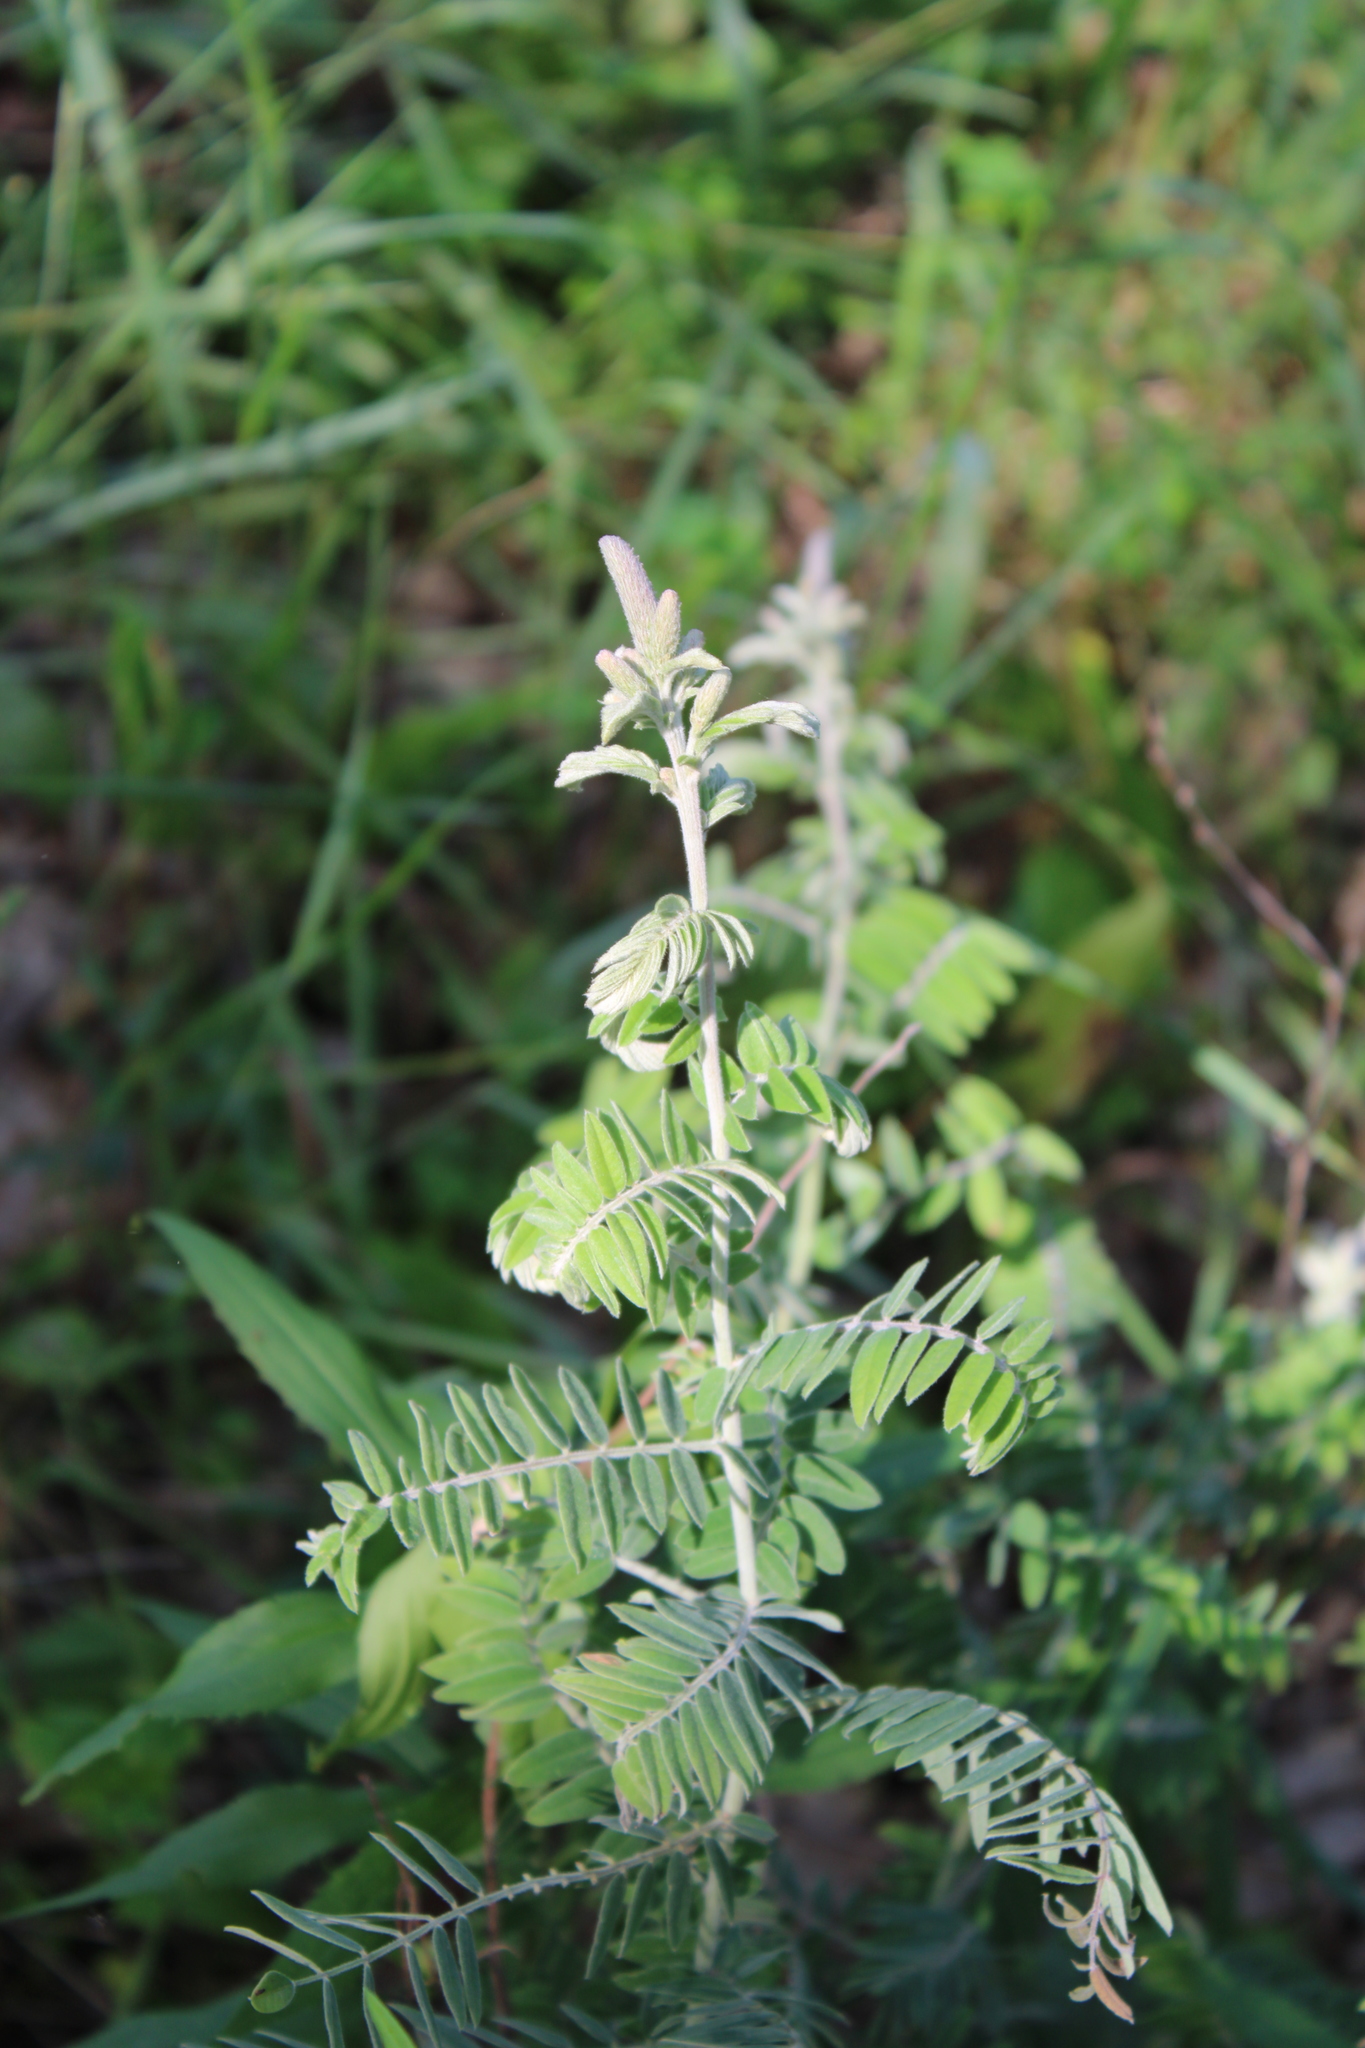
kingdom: Plantae
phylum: Tracheophyta
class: Magnoliopsida
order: Fabales
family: Fabaceae
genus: Amorpha
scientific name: Amorpha canescens
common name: Leadplant
